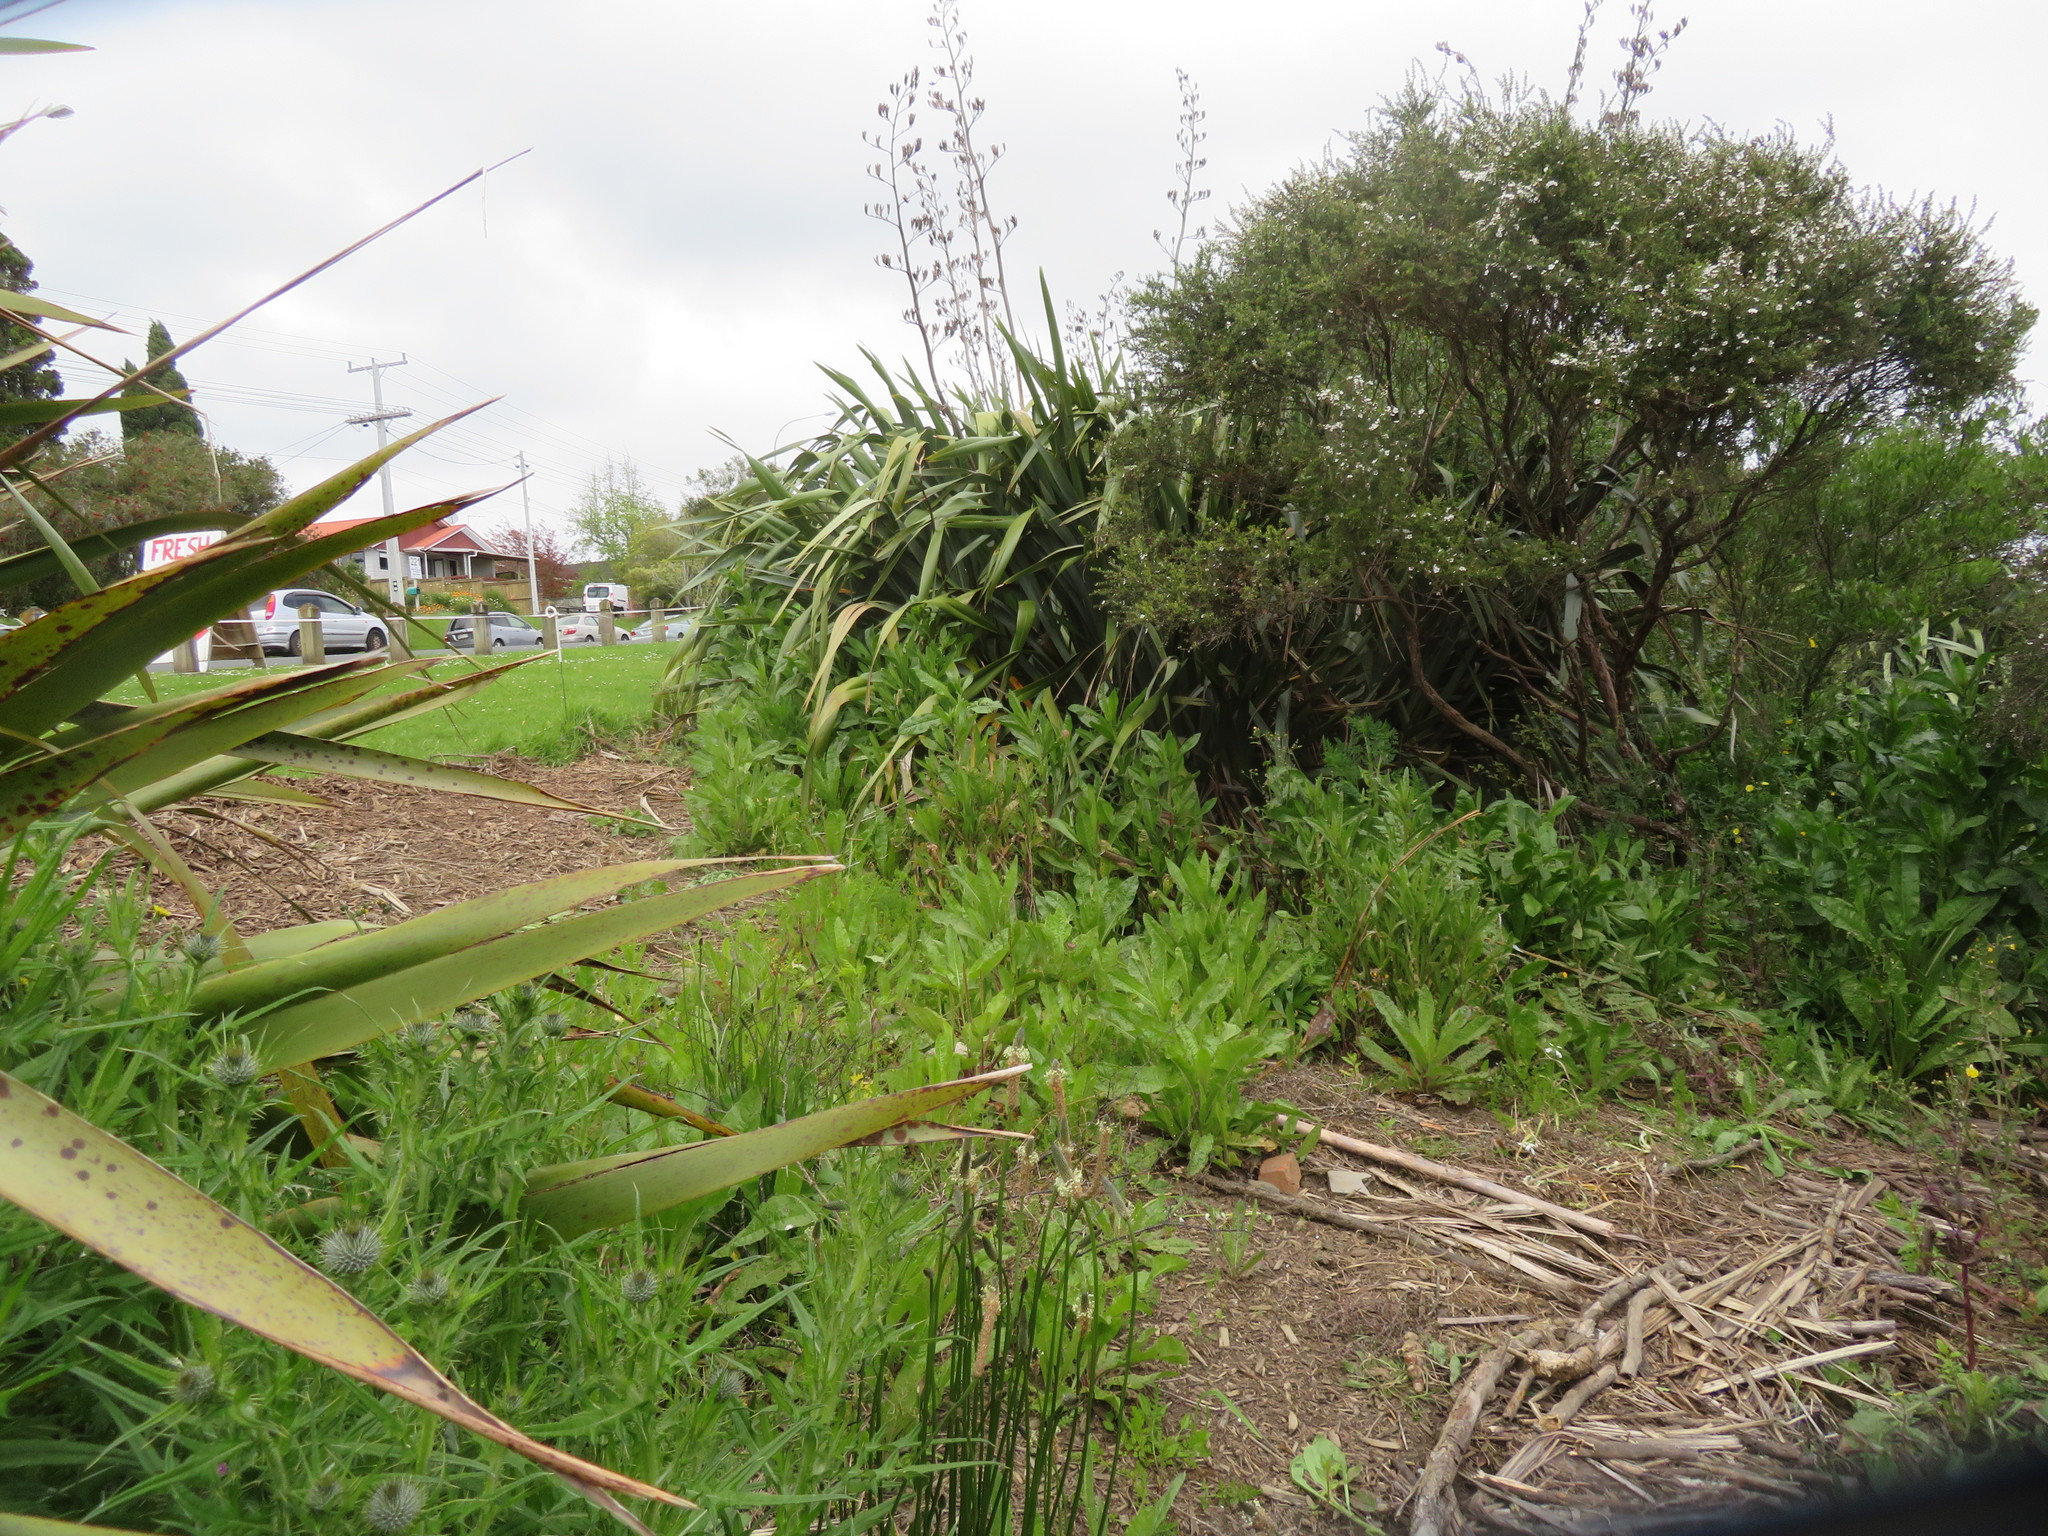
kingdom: Plantae
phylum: Tracheophyta
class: Magnoliopsida
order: Asterales
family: Asteraceae
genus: Helminthotheca
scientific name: Helminthotheca echioides
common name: Ox-tongue
